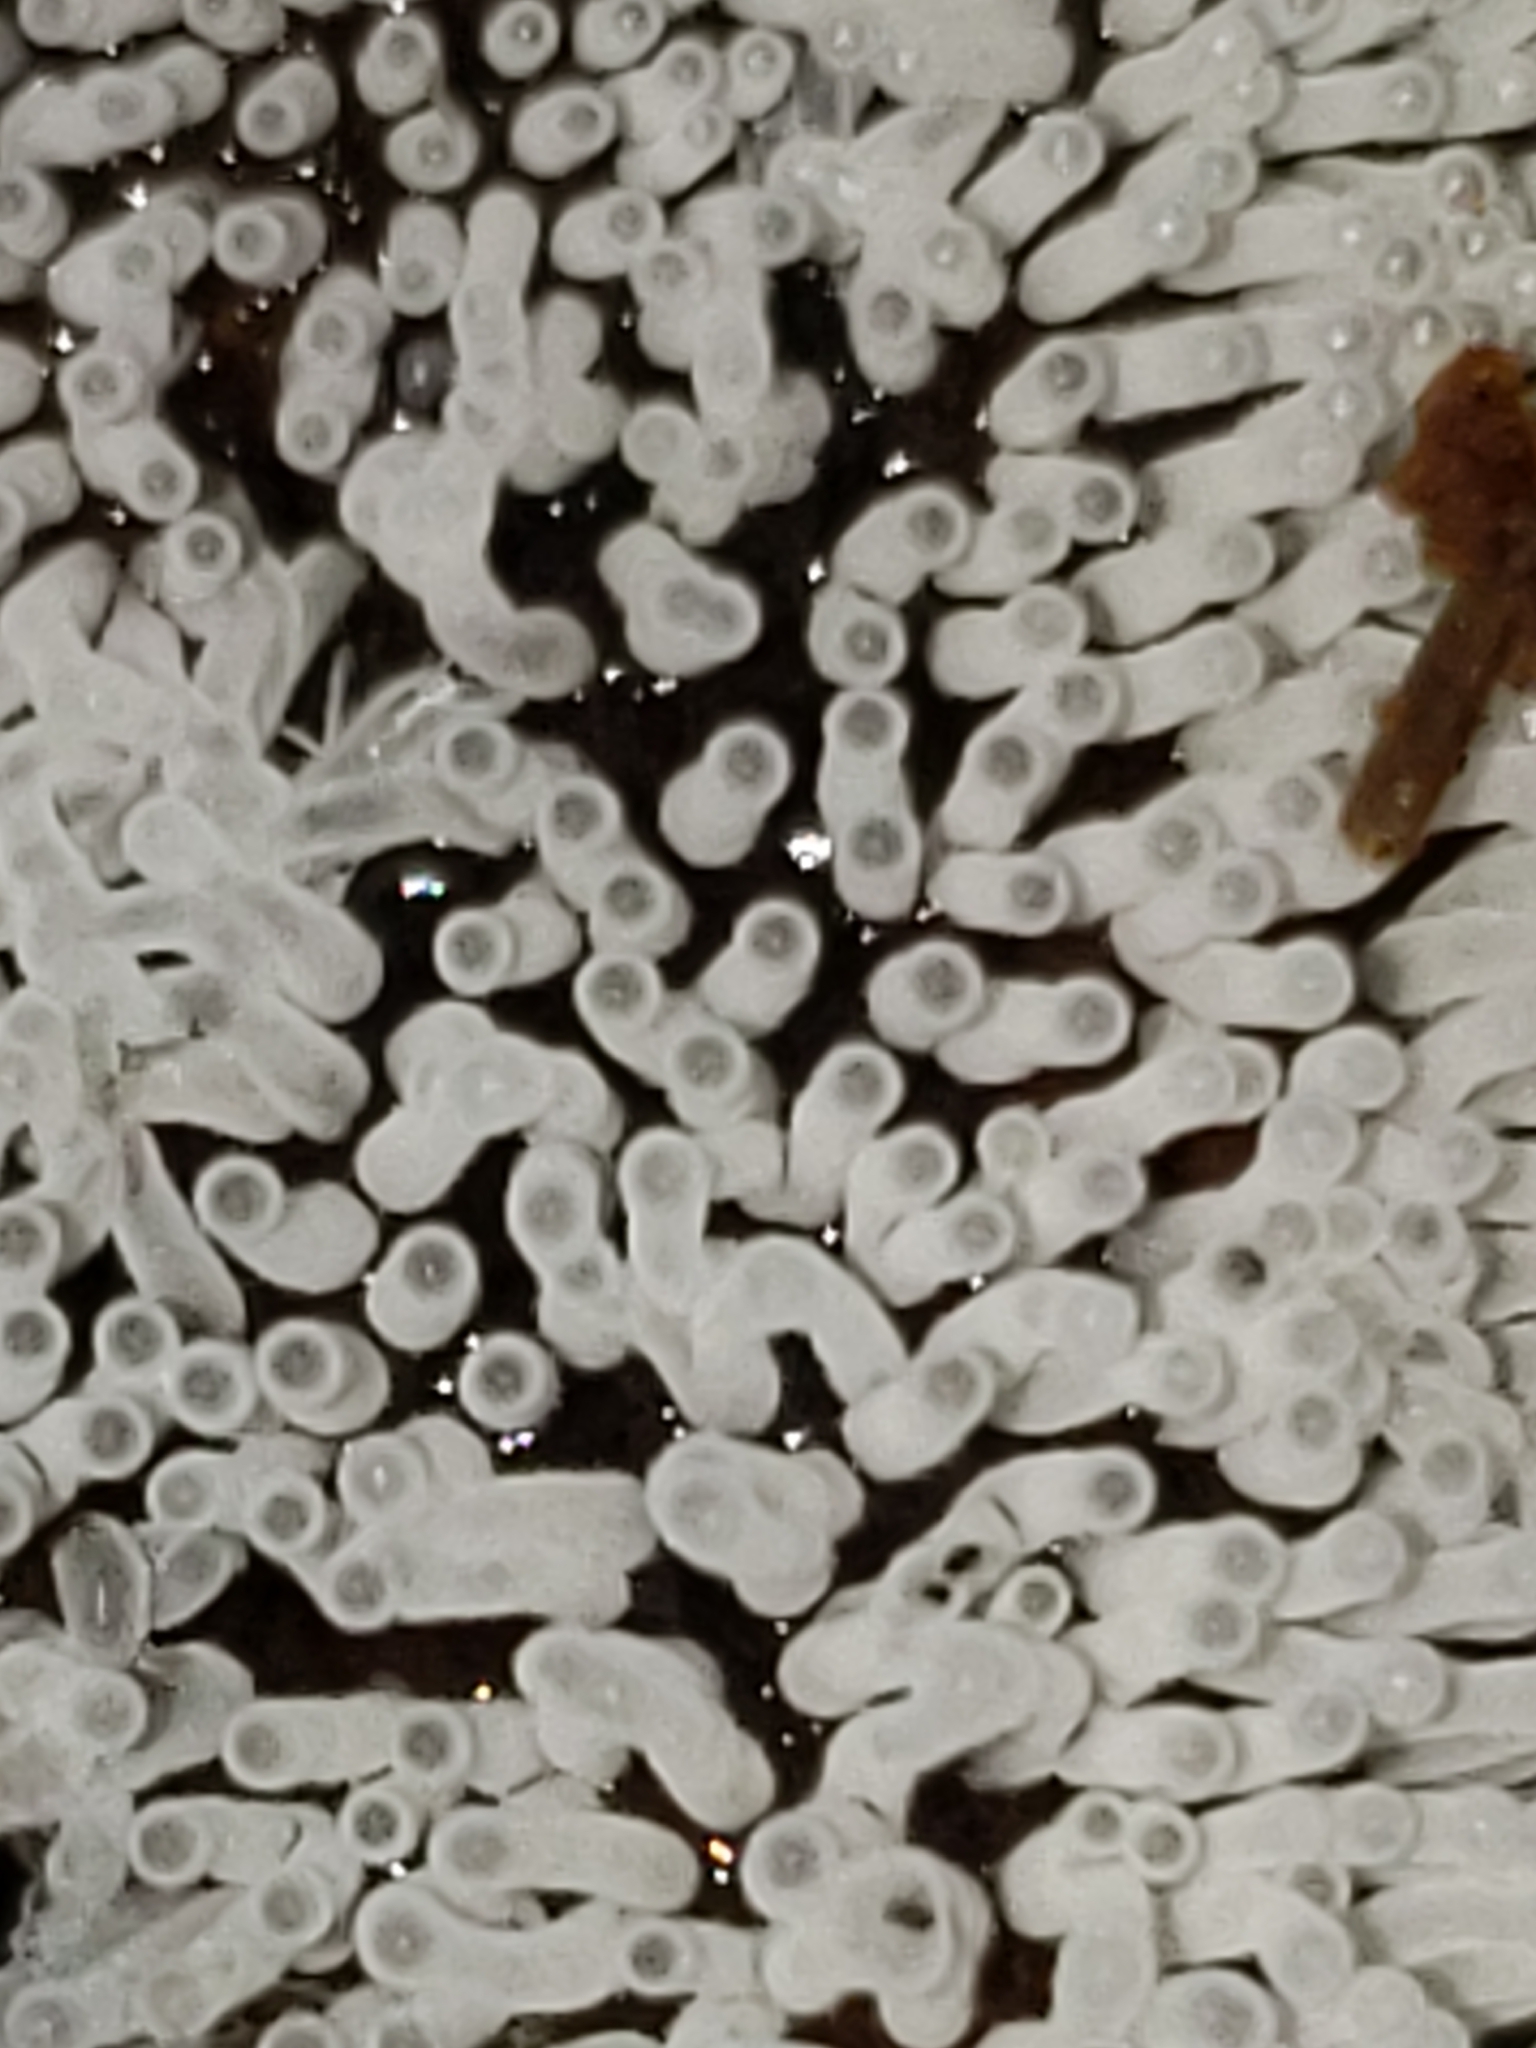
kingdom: Protozoa
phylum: Mycetozoa
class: Protosteliomycetes
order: Ceratiomyxales
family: Ceratiomyxaceae
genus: Ceratiomyxa
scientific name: Ceratiomyxa fruticulosa
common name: Honeycomb coral slime mold
